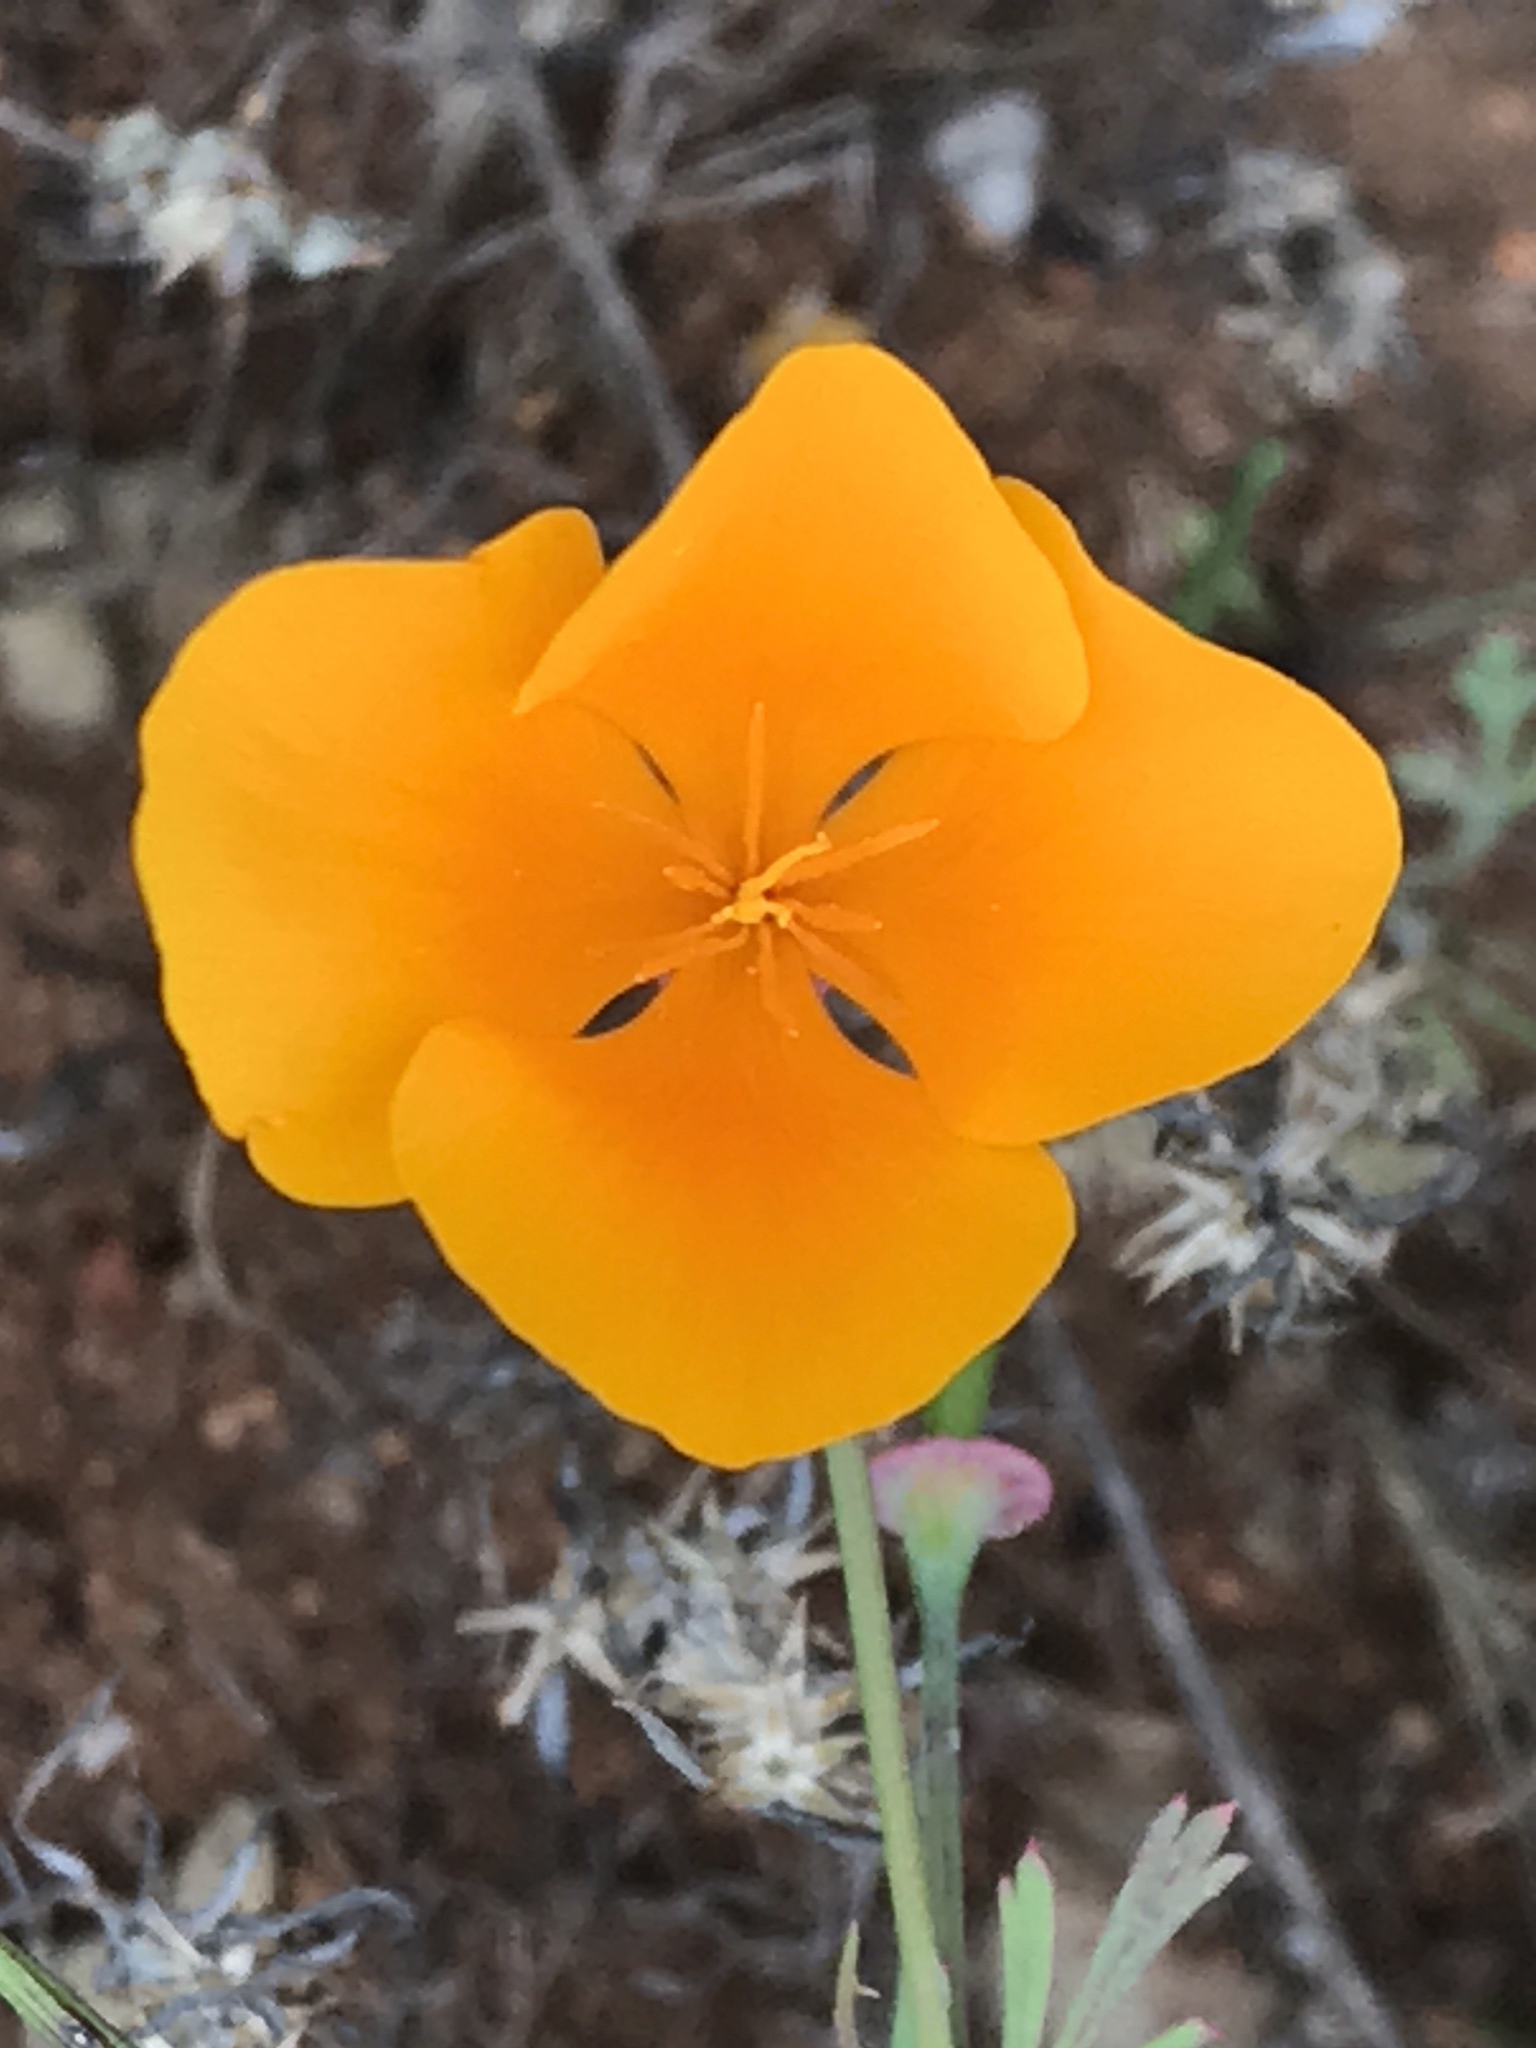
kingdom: Plantae
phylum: Tracheophyta
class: Magnoliopsida
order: Ranunculales
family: Papaveraceae
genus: Eschscholzia
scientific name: Eschscholzia californica
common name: California poppy
